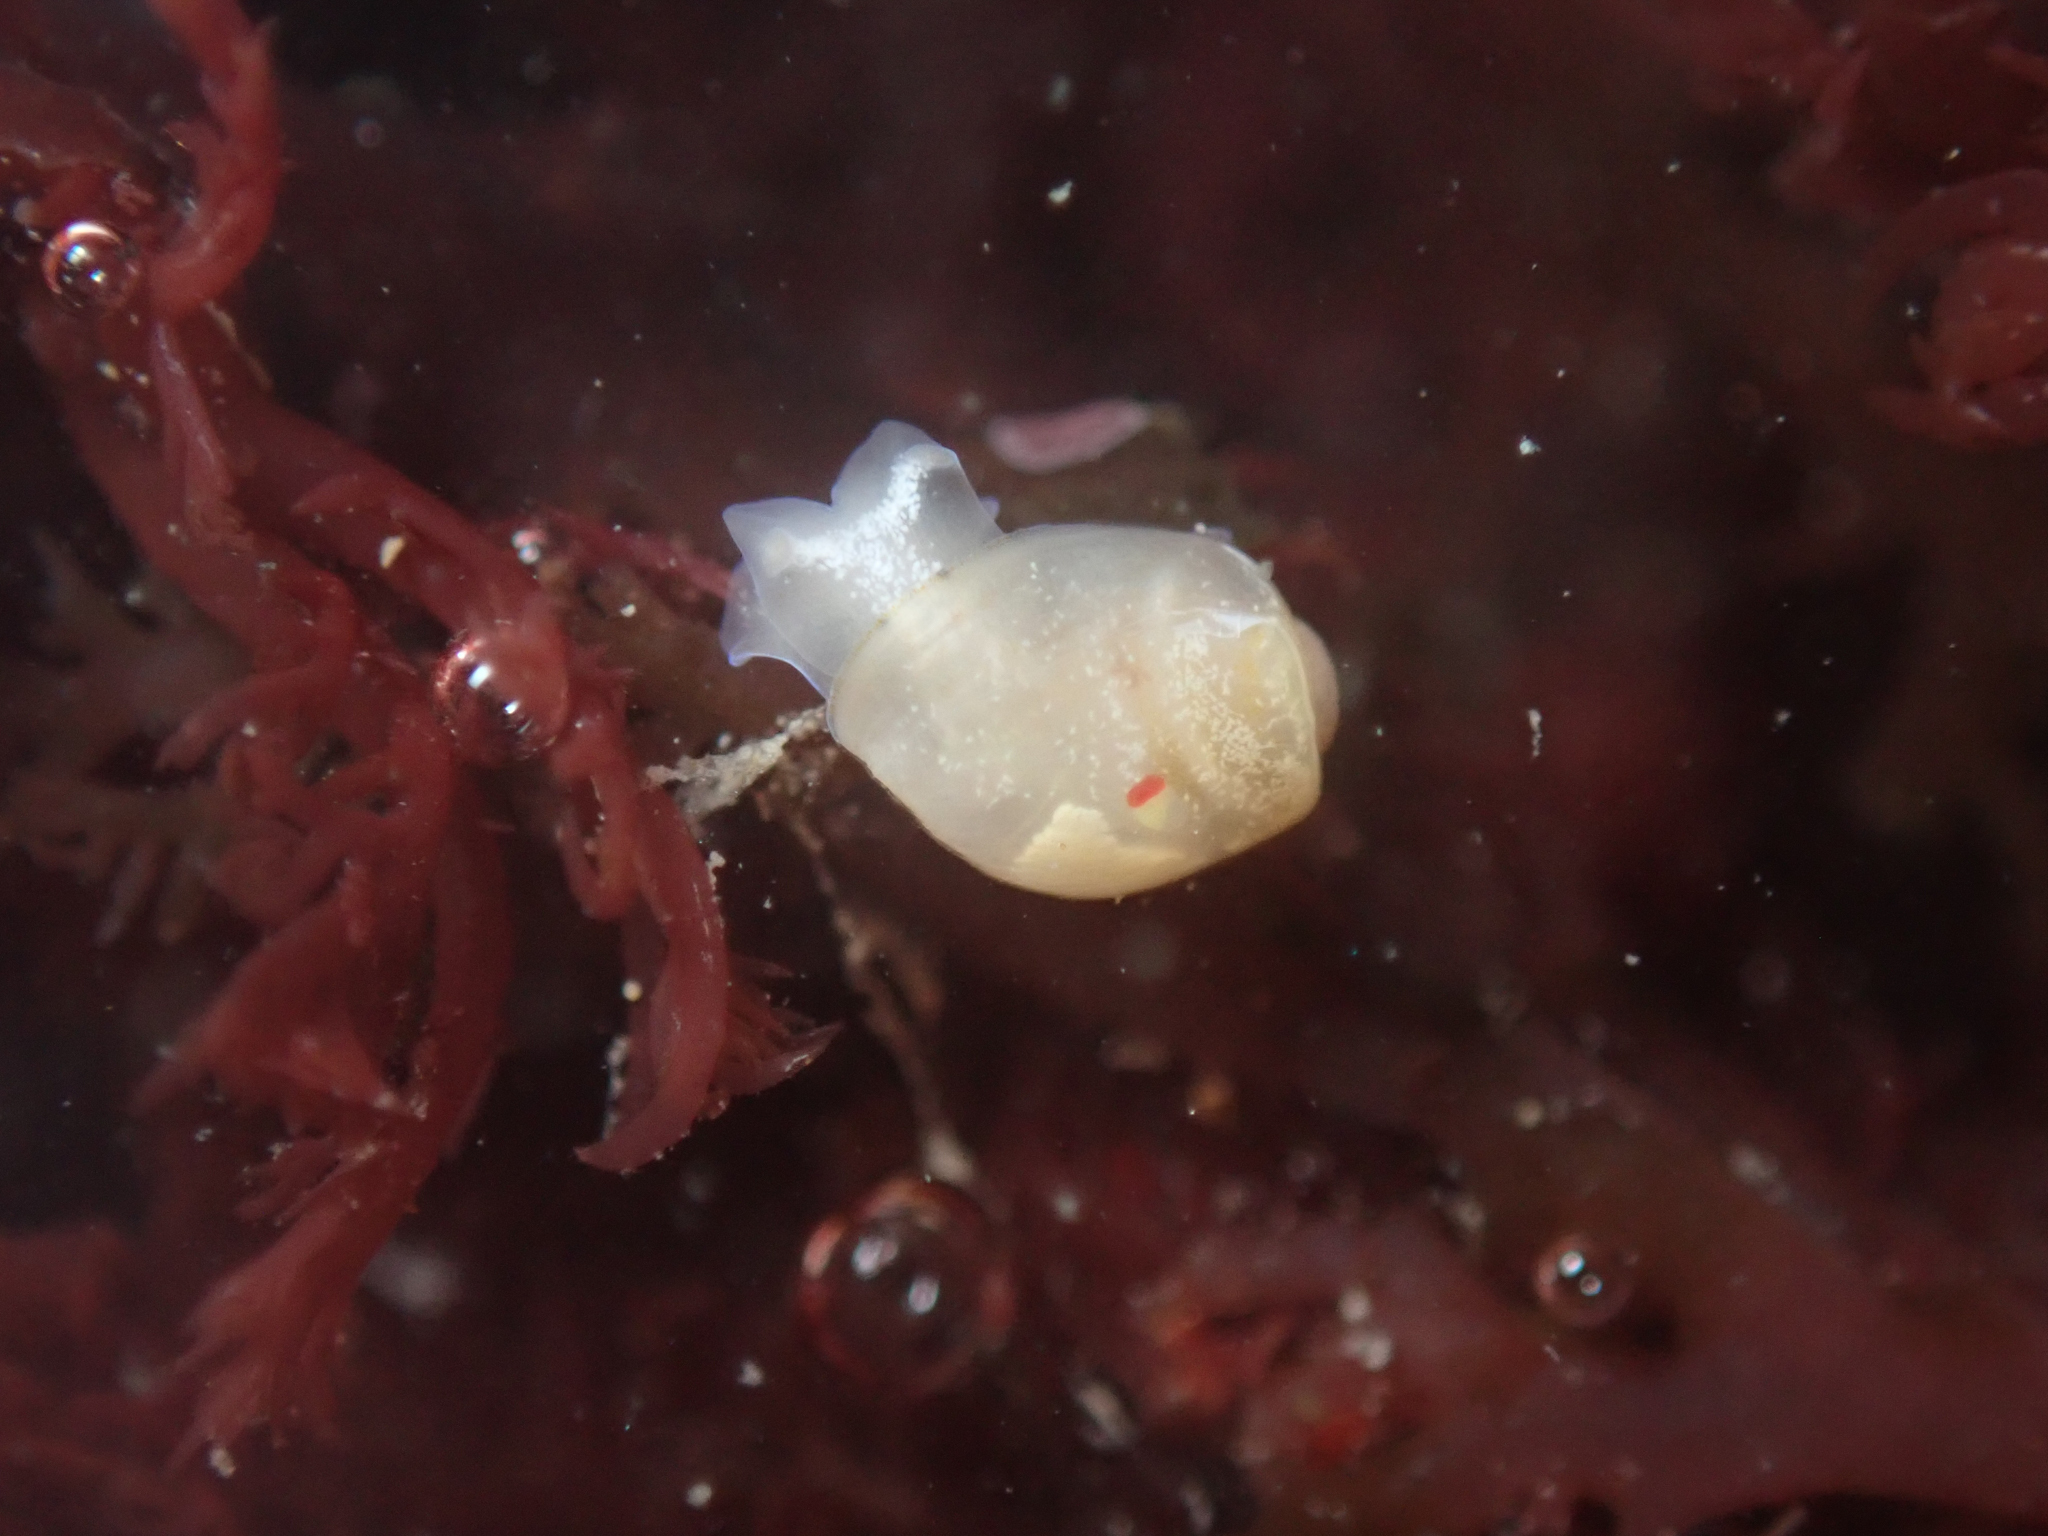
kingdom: Animalia
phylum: Mollusca
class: Gastropoda
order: Cephalaspidea
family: Diaphanidae
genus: Diaphana
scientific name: Diaphana californica
